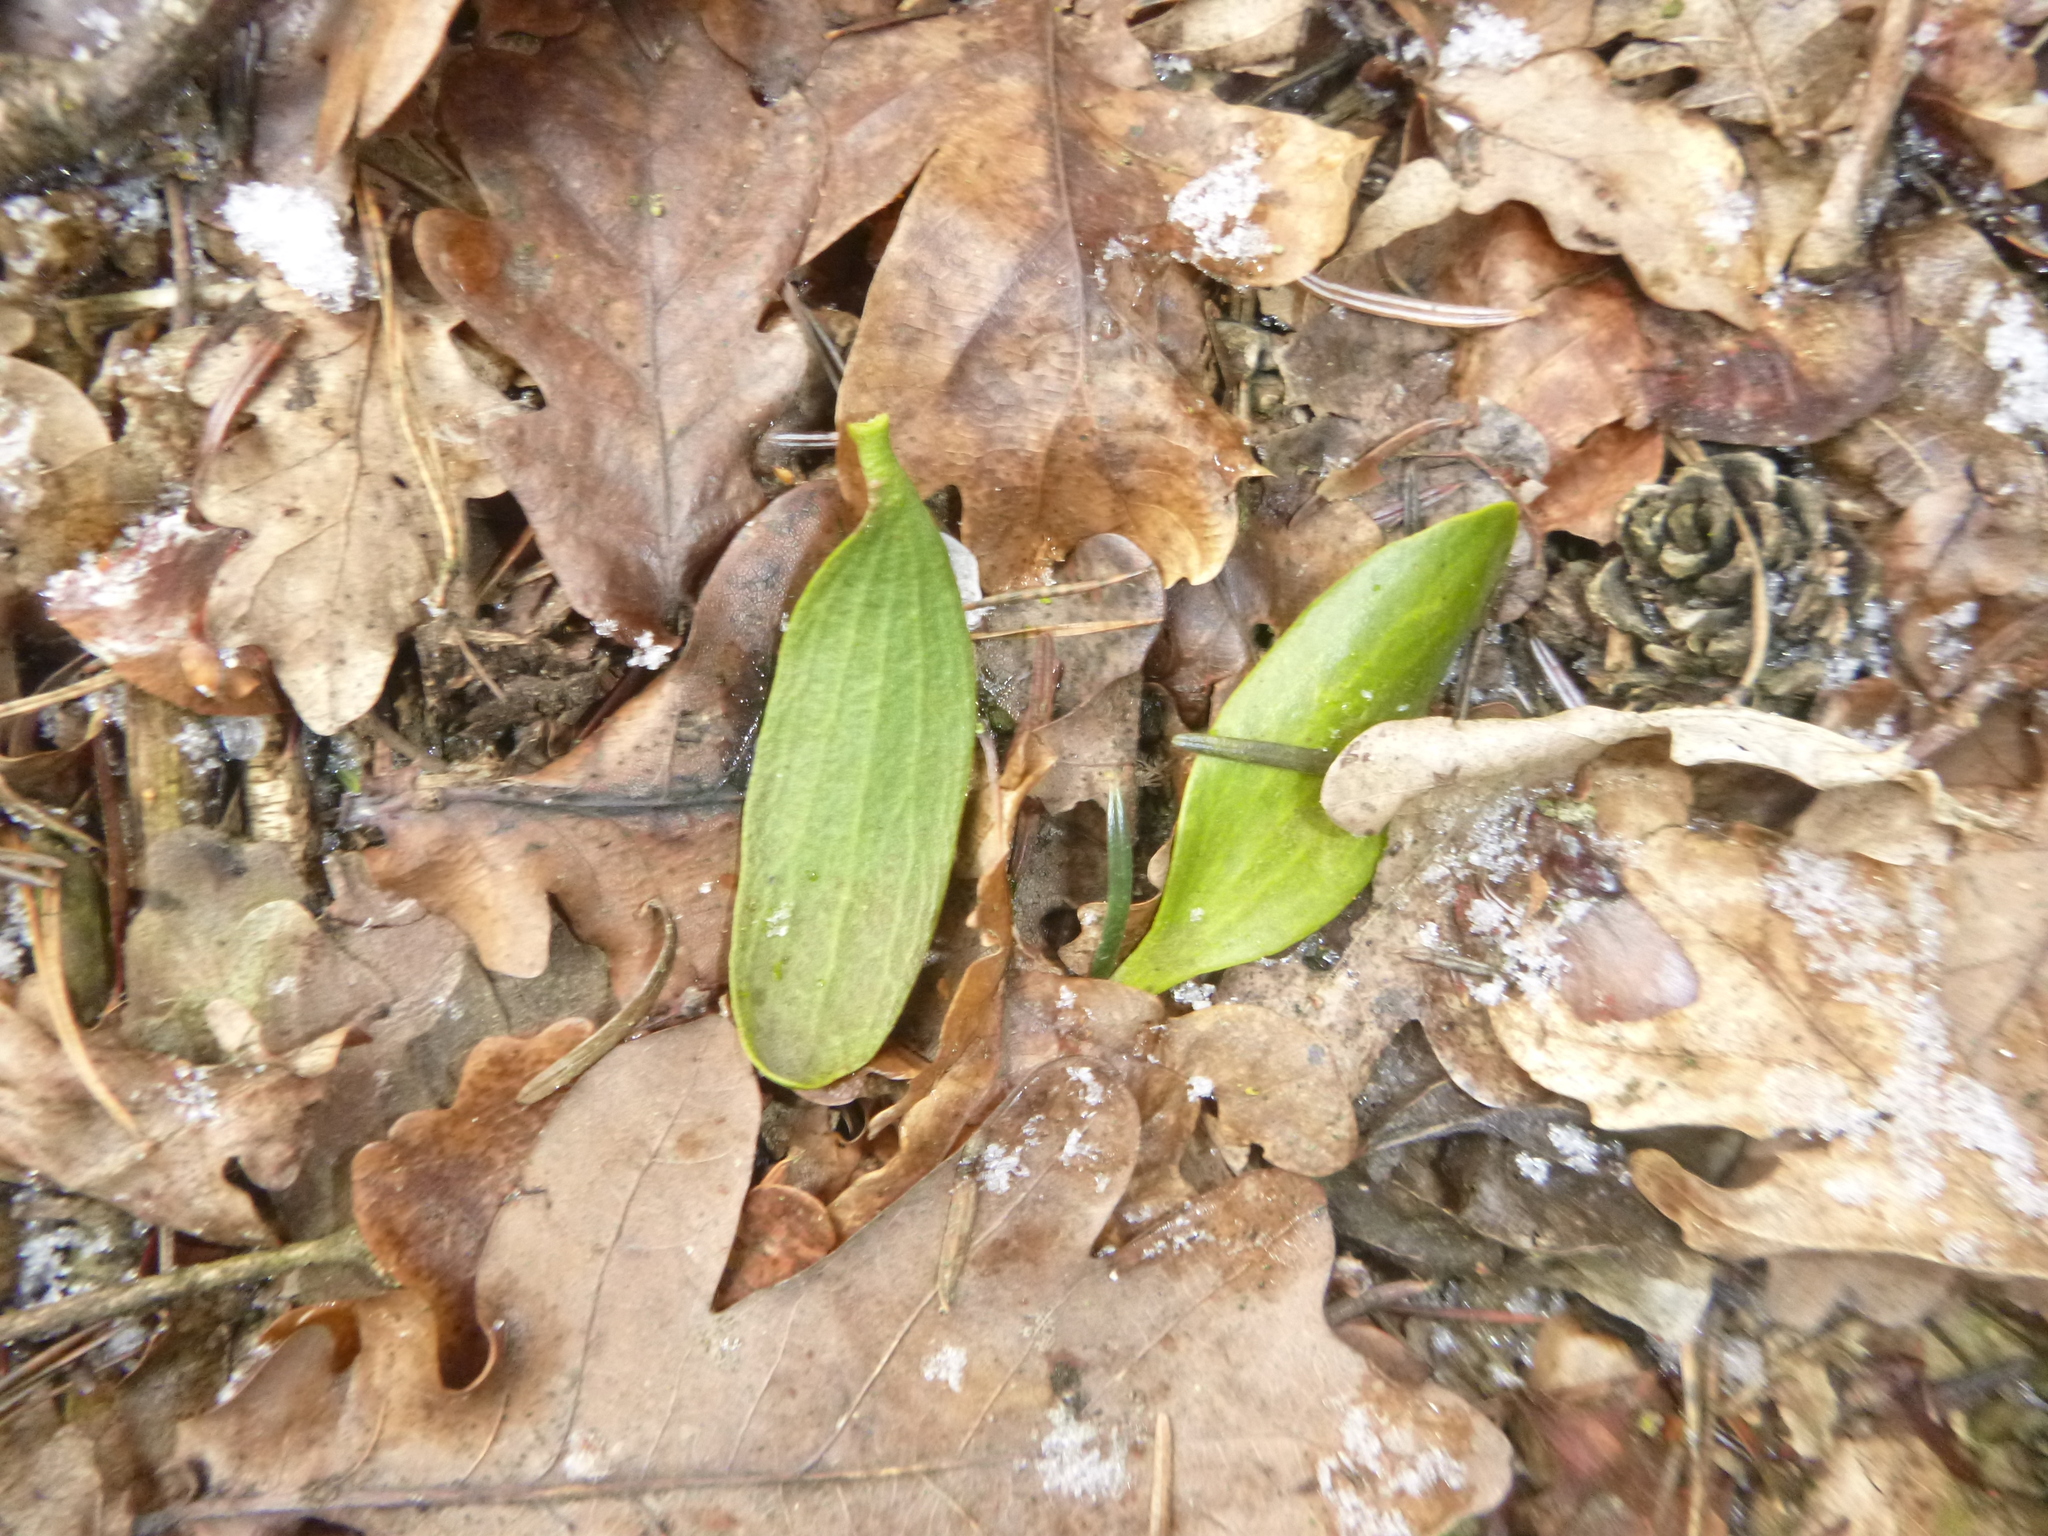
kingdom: Plantae
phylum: Tracheophyta
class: Magnoliopsida
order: Santalales
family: Viscaceae
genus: Viscum
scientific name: Viscum album
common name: Mistletoe
